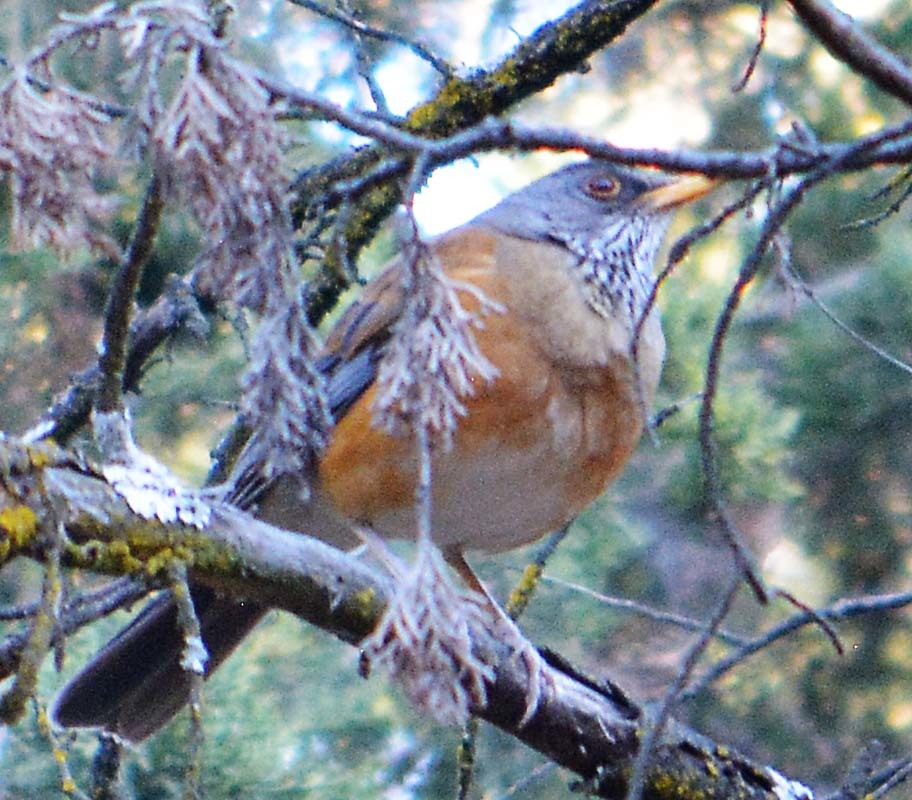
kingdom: Animalia
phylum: Chordata
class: Aves
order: Passeriformes
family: Turdidae
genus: Turdus
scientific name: Turdus rufopalliatus
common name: Rufous-backed robin
